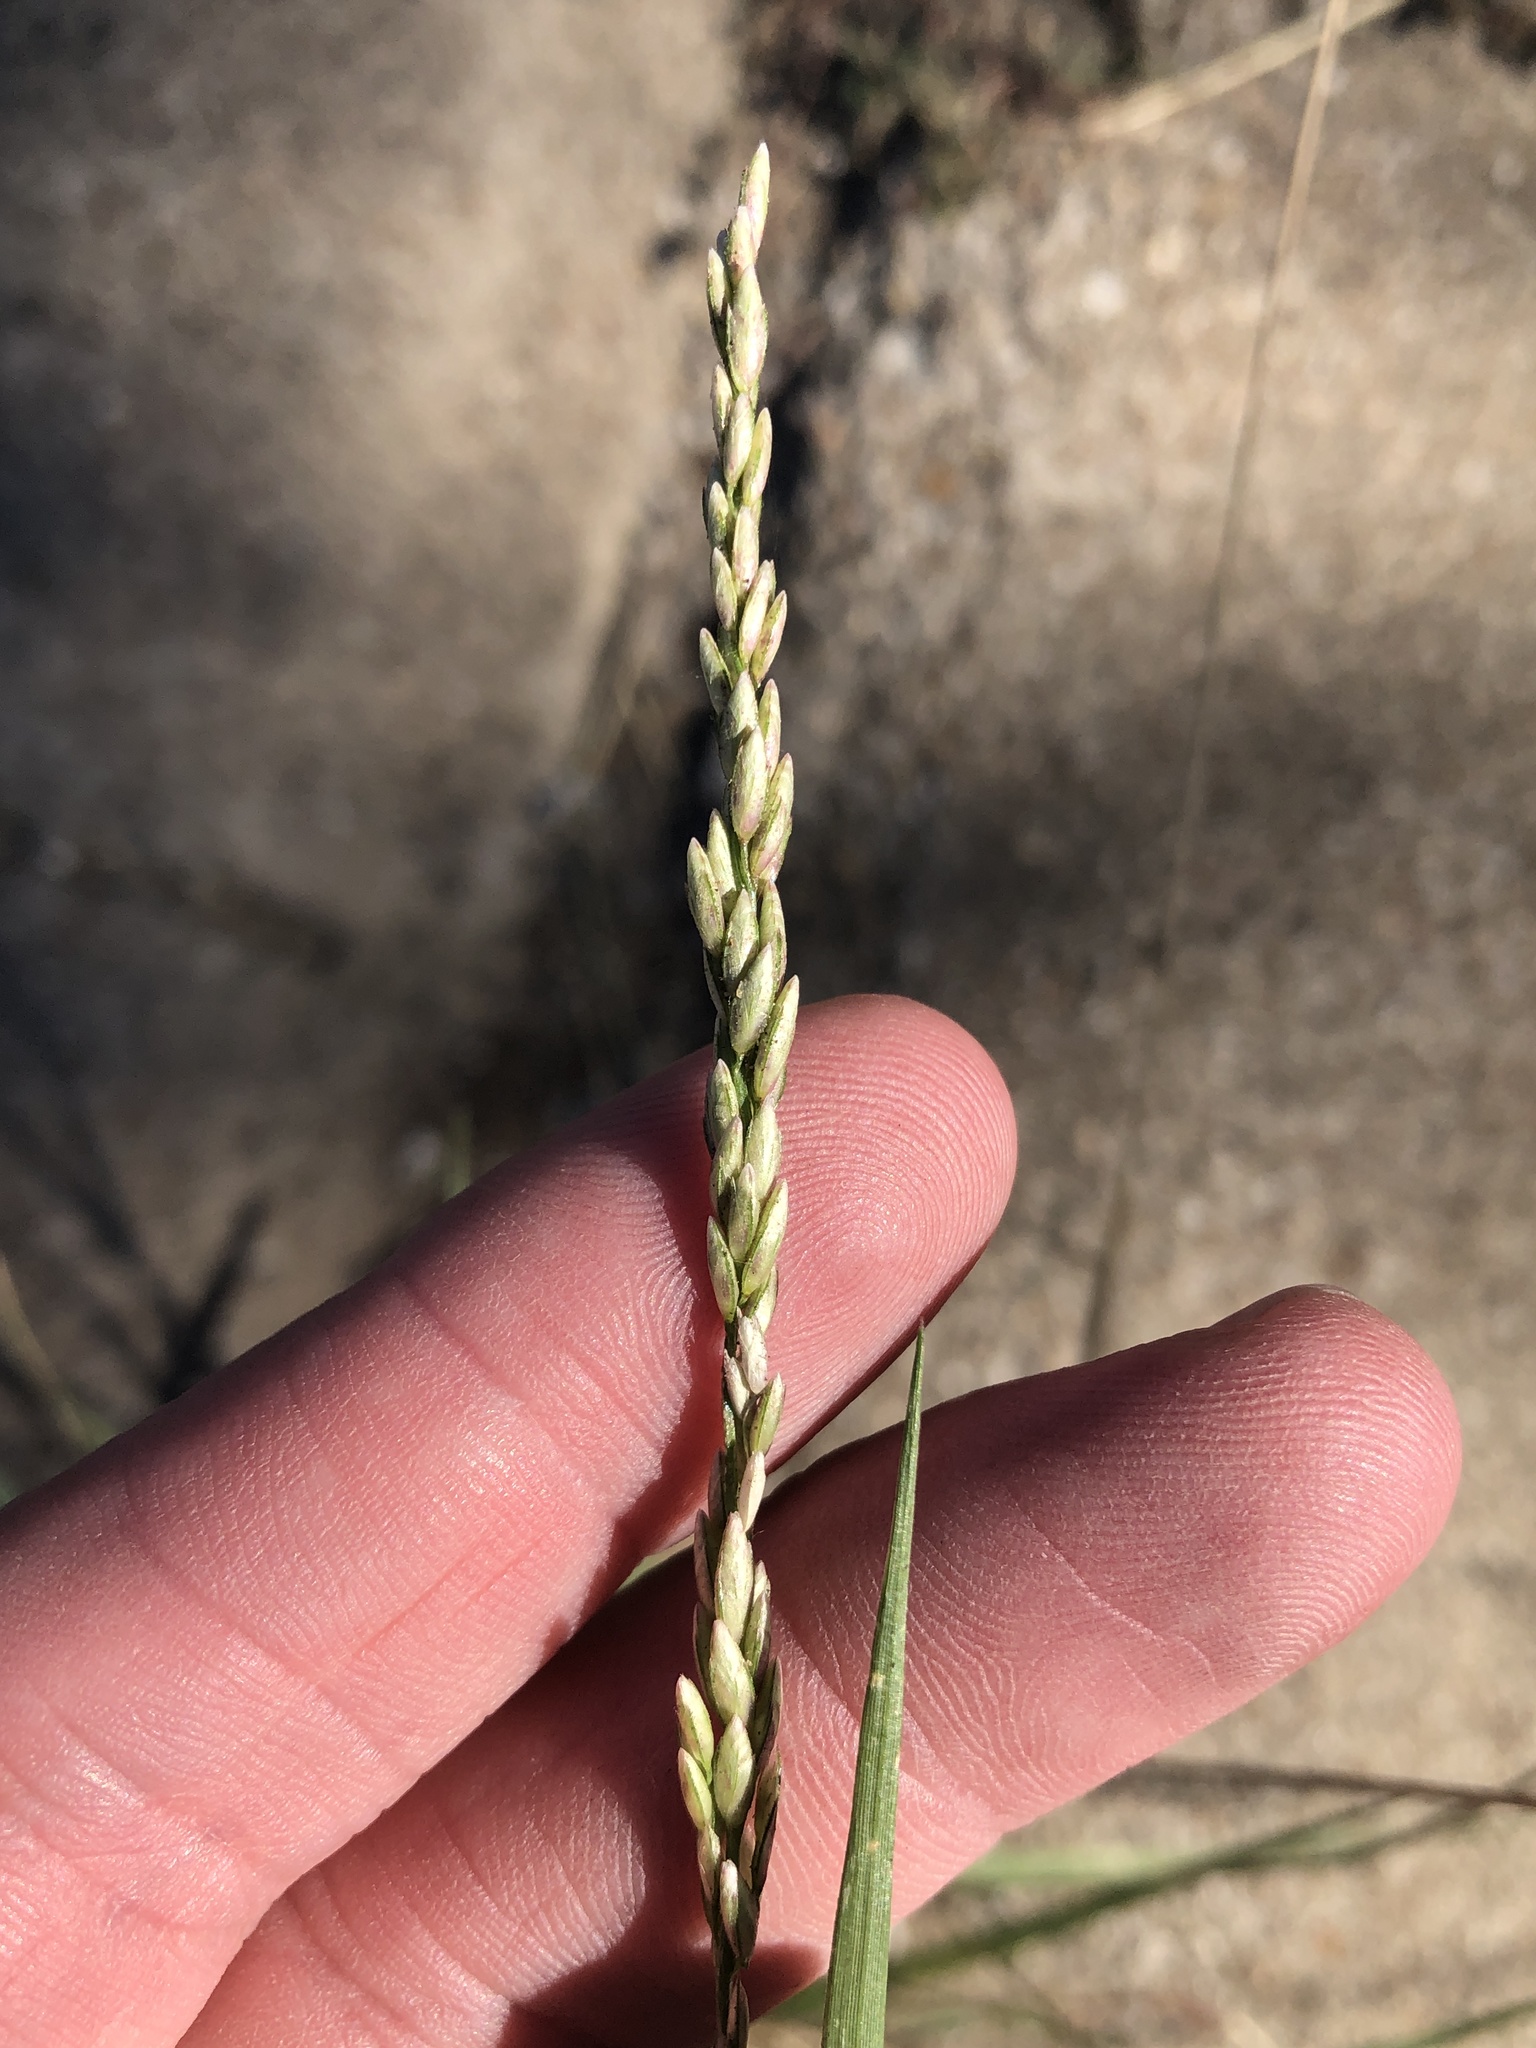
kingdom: Plantae
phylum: Tracheophyta
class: Liliopsida
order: Poales
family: Poaceae
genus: Tridens
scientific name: Tridens albescens
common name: White tridens
